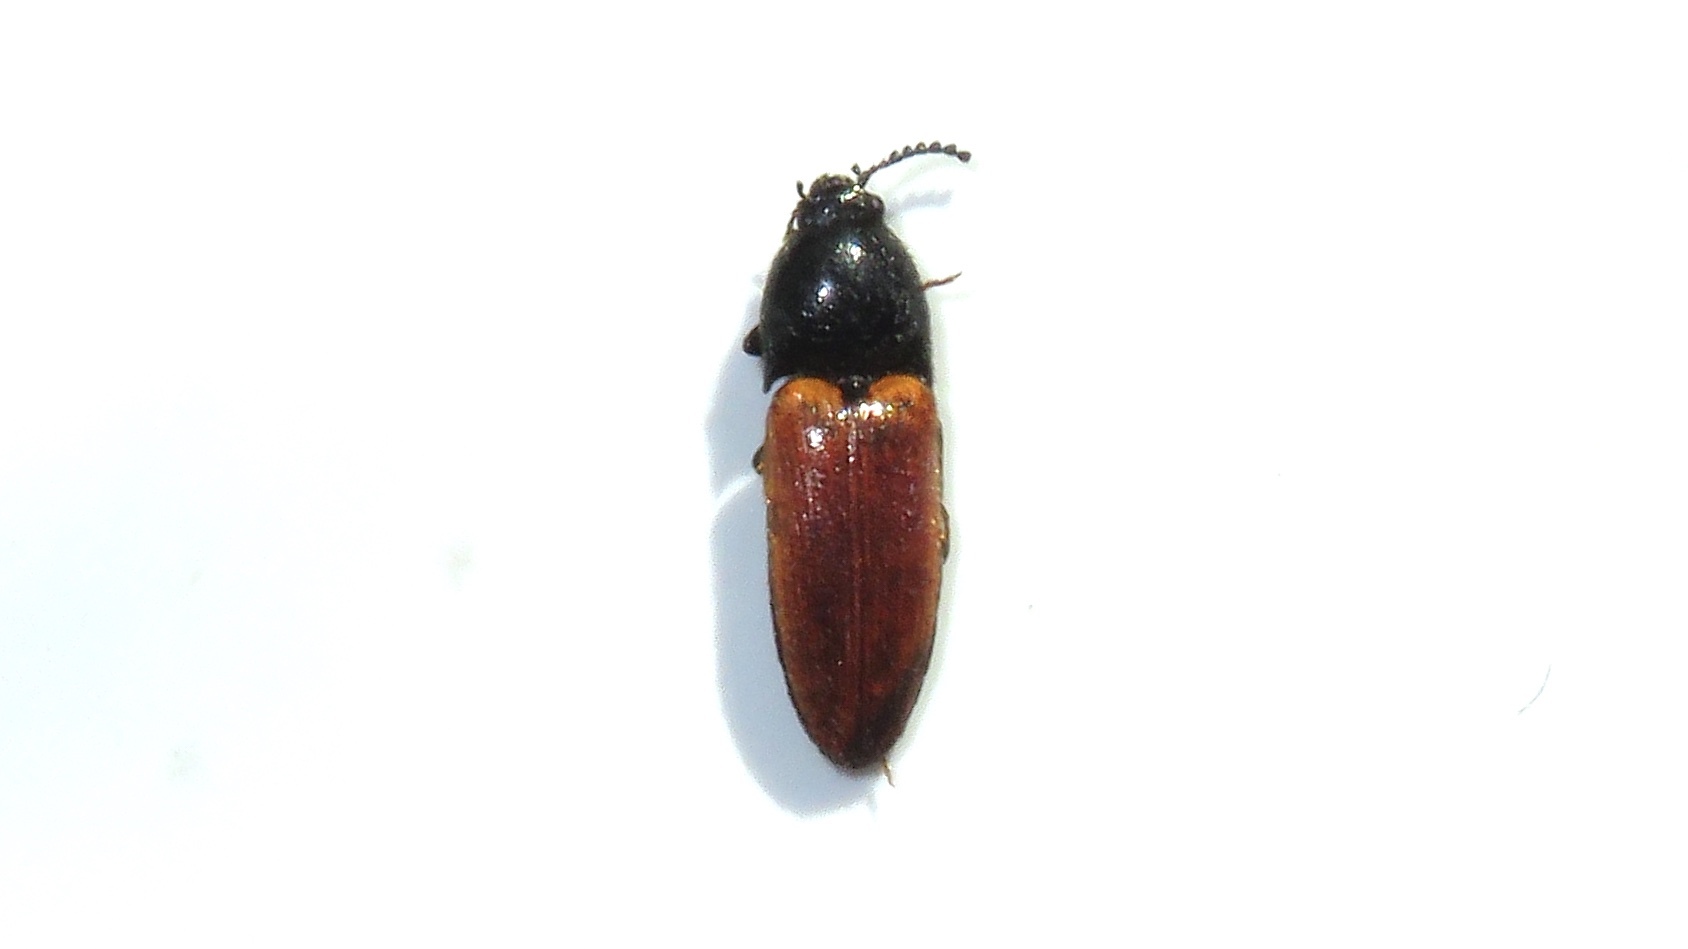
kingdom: Animalia
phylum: Arthropoda
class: Insecta
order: Coleoptera
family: Elateridae
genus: Ampedus
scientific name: Ampedus sanguinipennis
